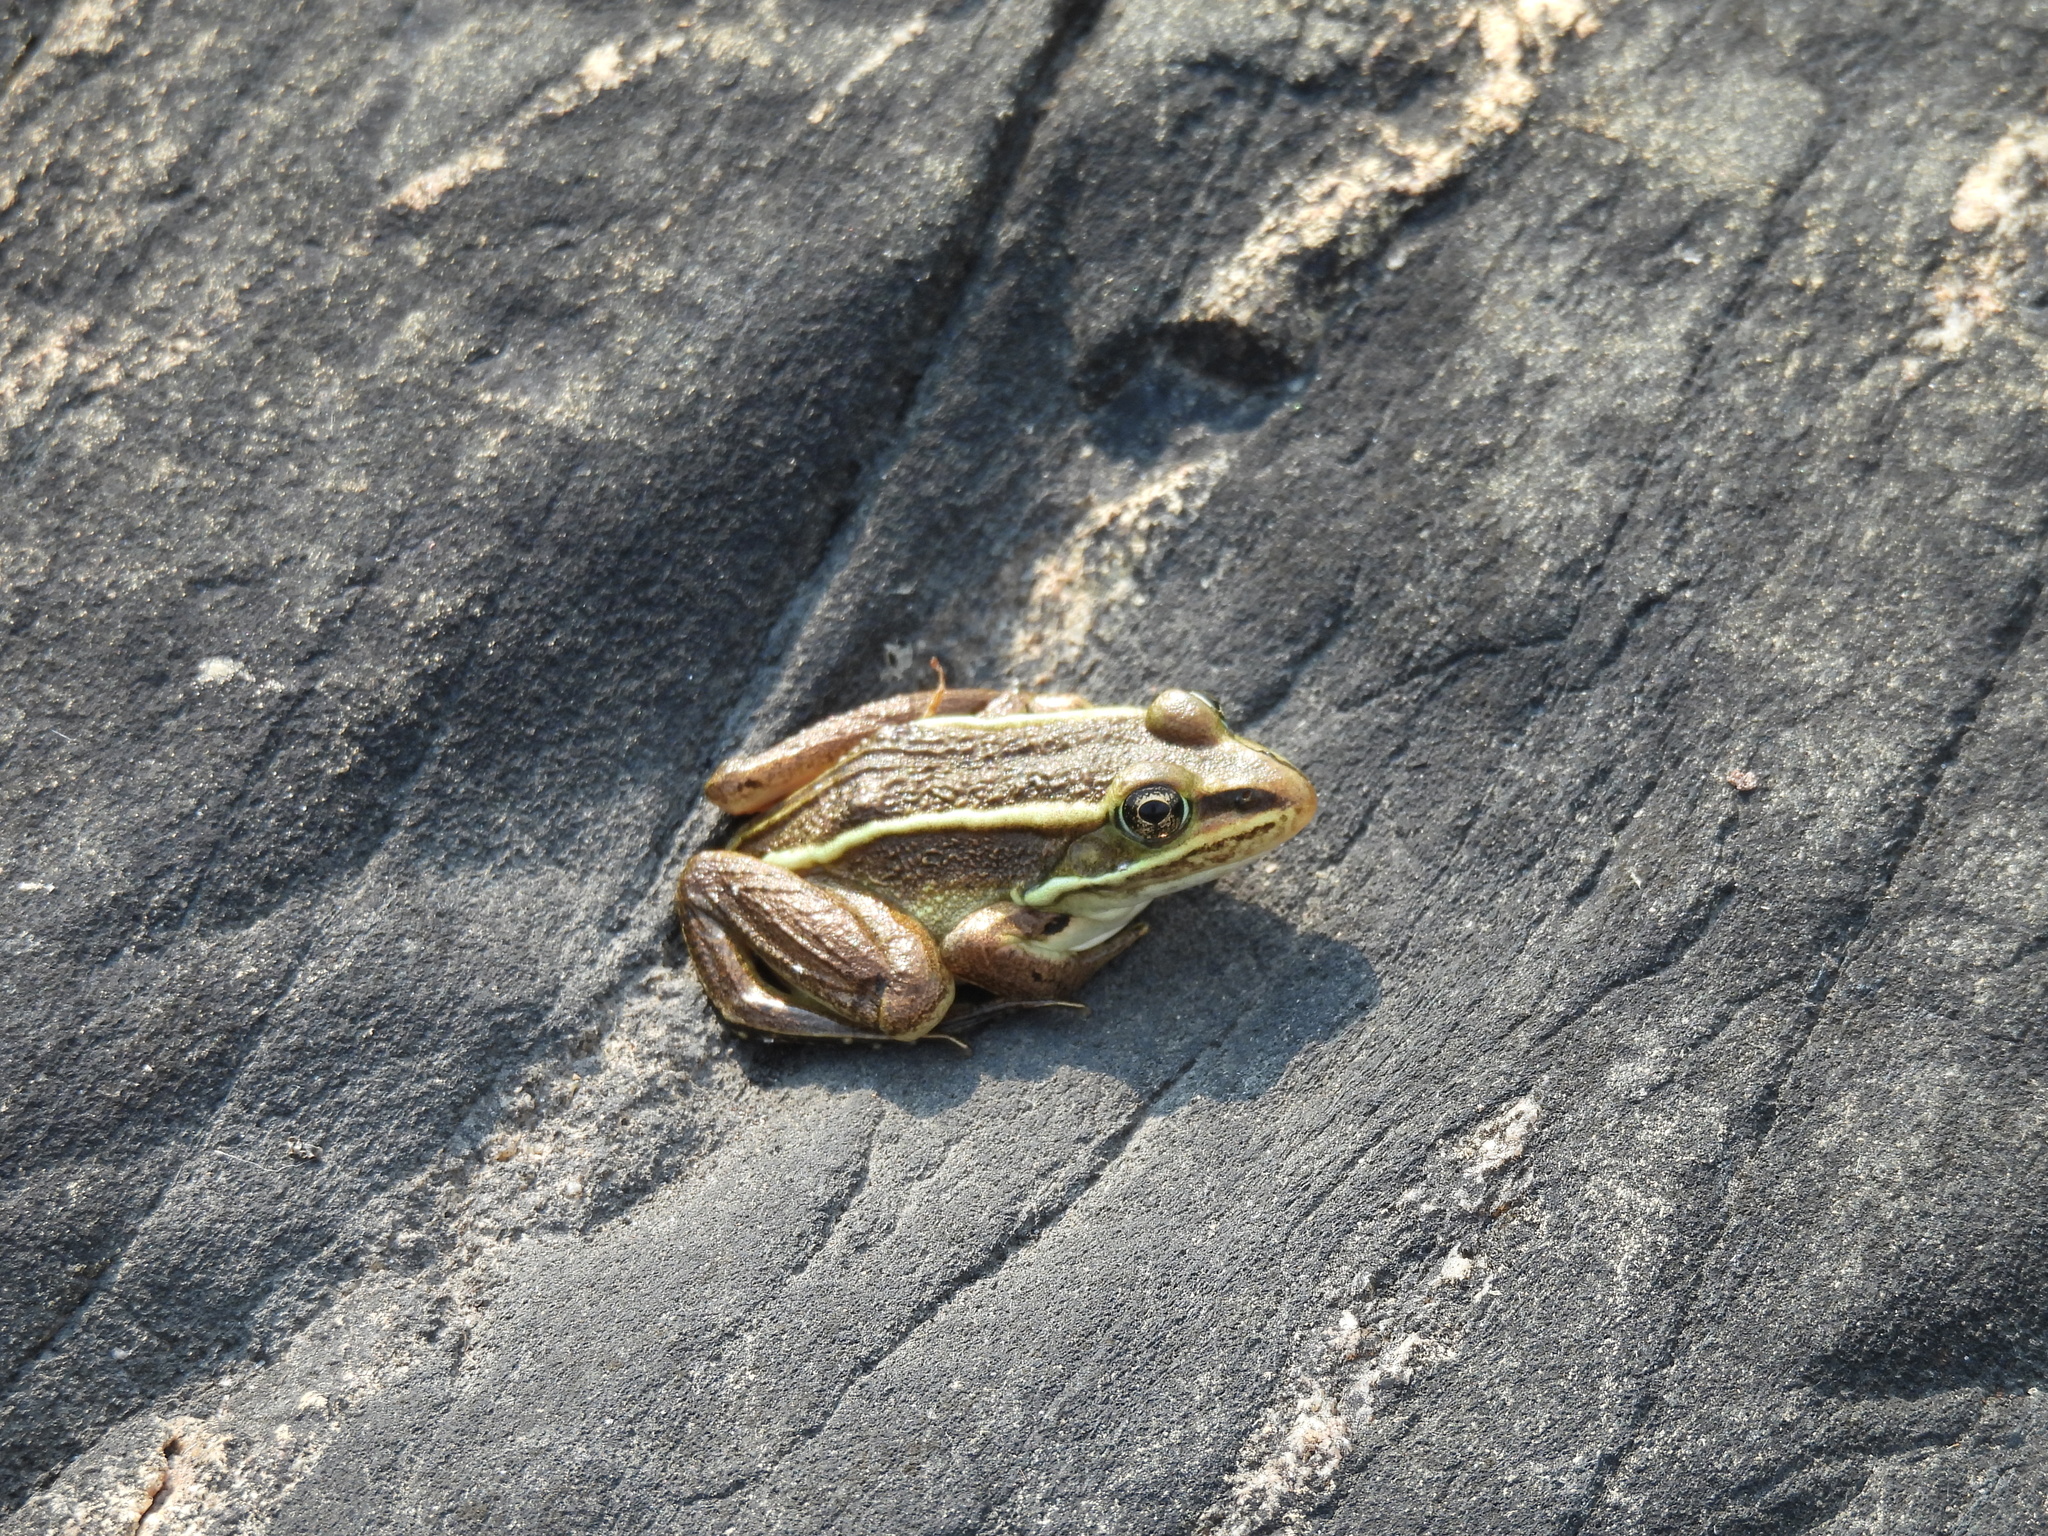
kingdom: Animalia
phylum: Chordata
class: Amphibia
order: Anura
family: Ranidae
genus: Lithobates
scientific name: Lithobates pipiens
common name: Northern leopard frog
